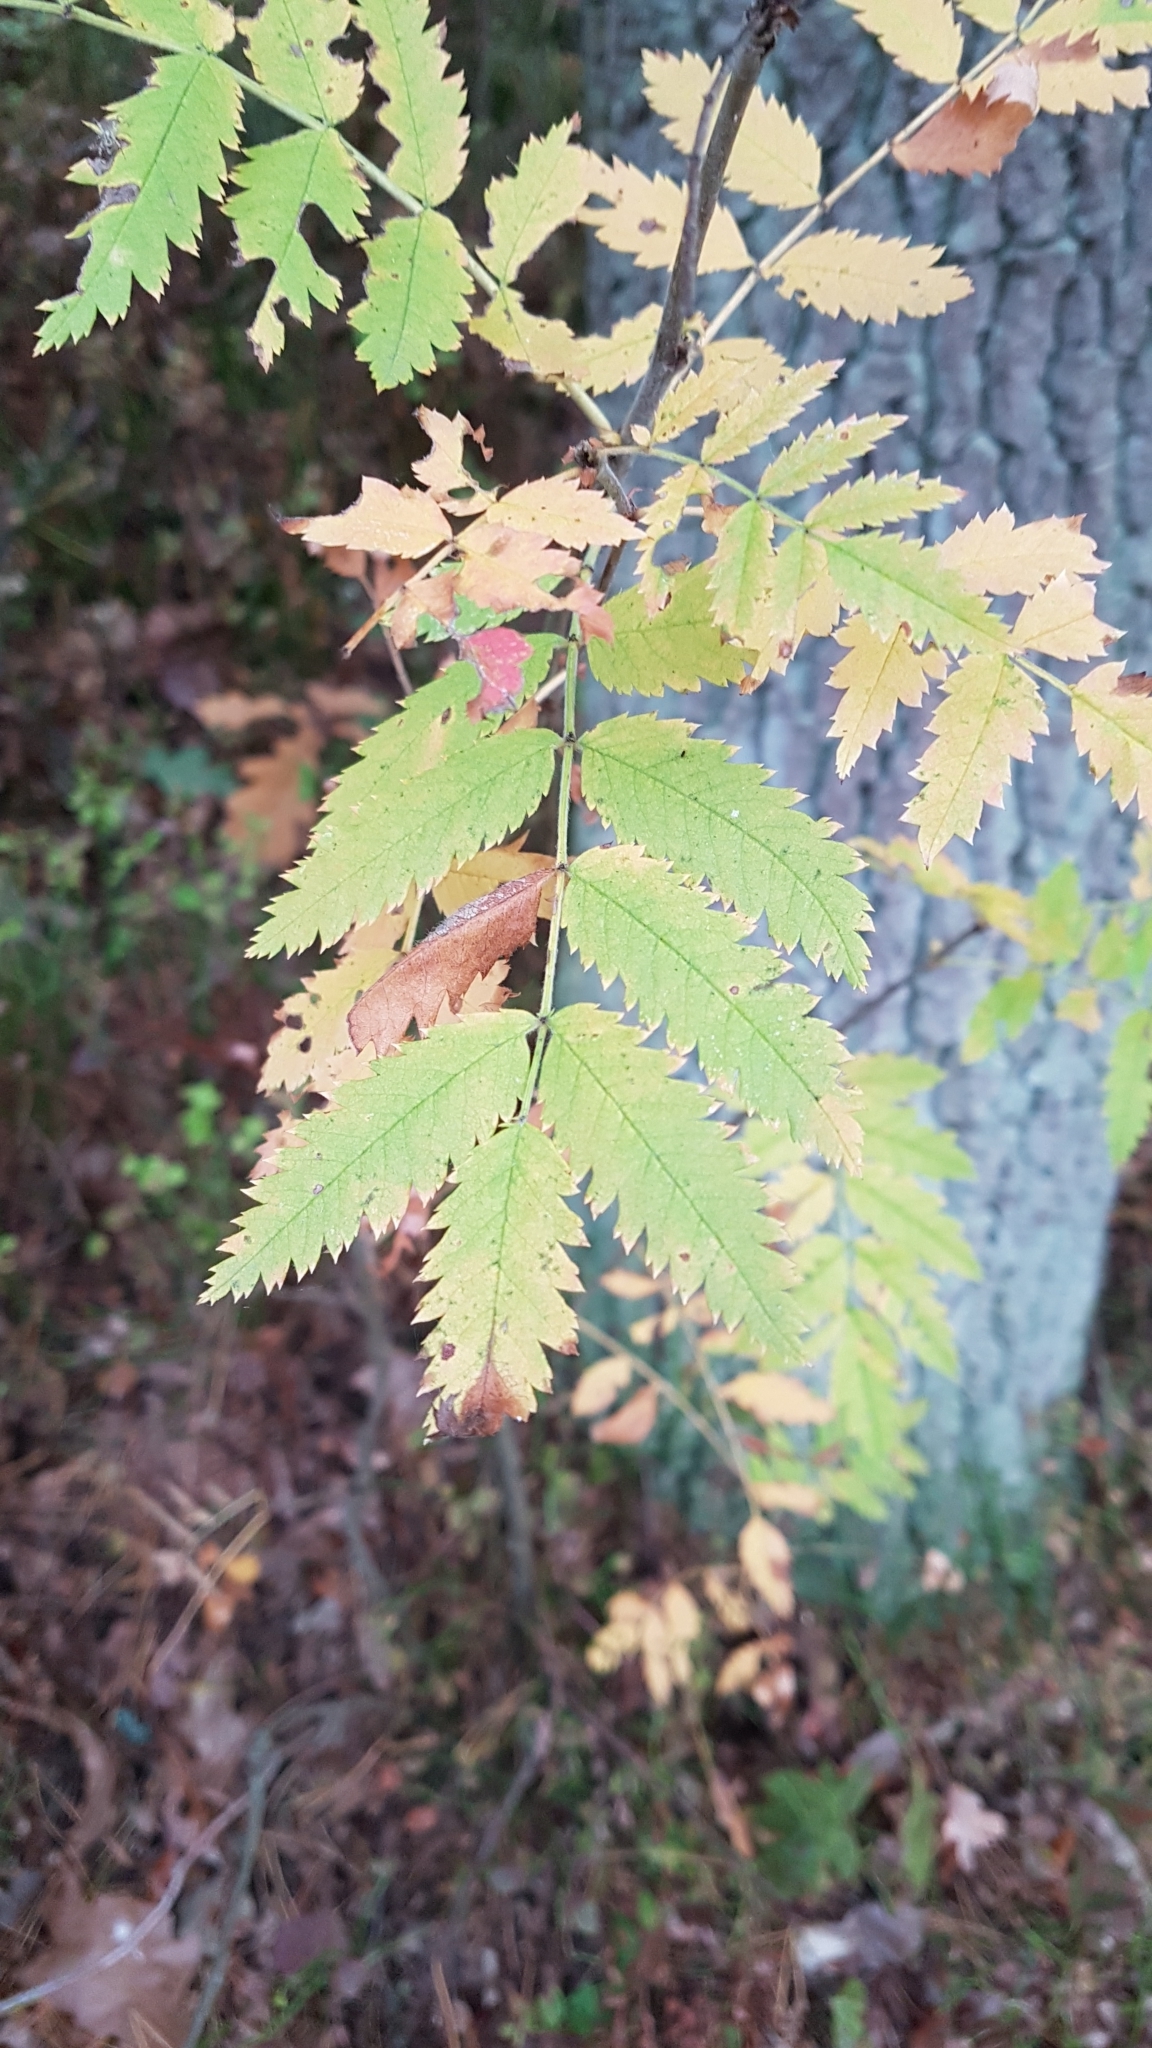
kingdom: Plantae
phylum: Tracheophyta
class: Magnoliopsida
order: Rosales
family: Rosaceae
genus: Sorbus
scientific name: Sorbus aucuparia
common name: Rowan
